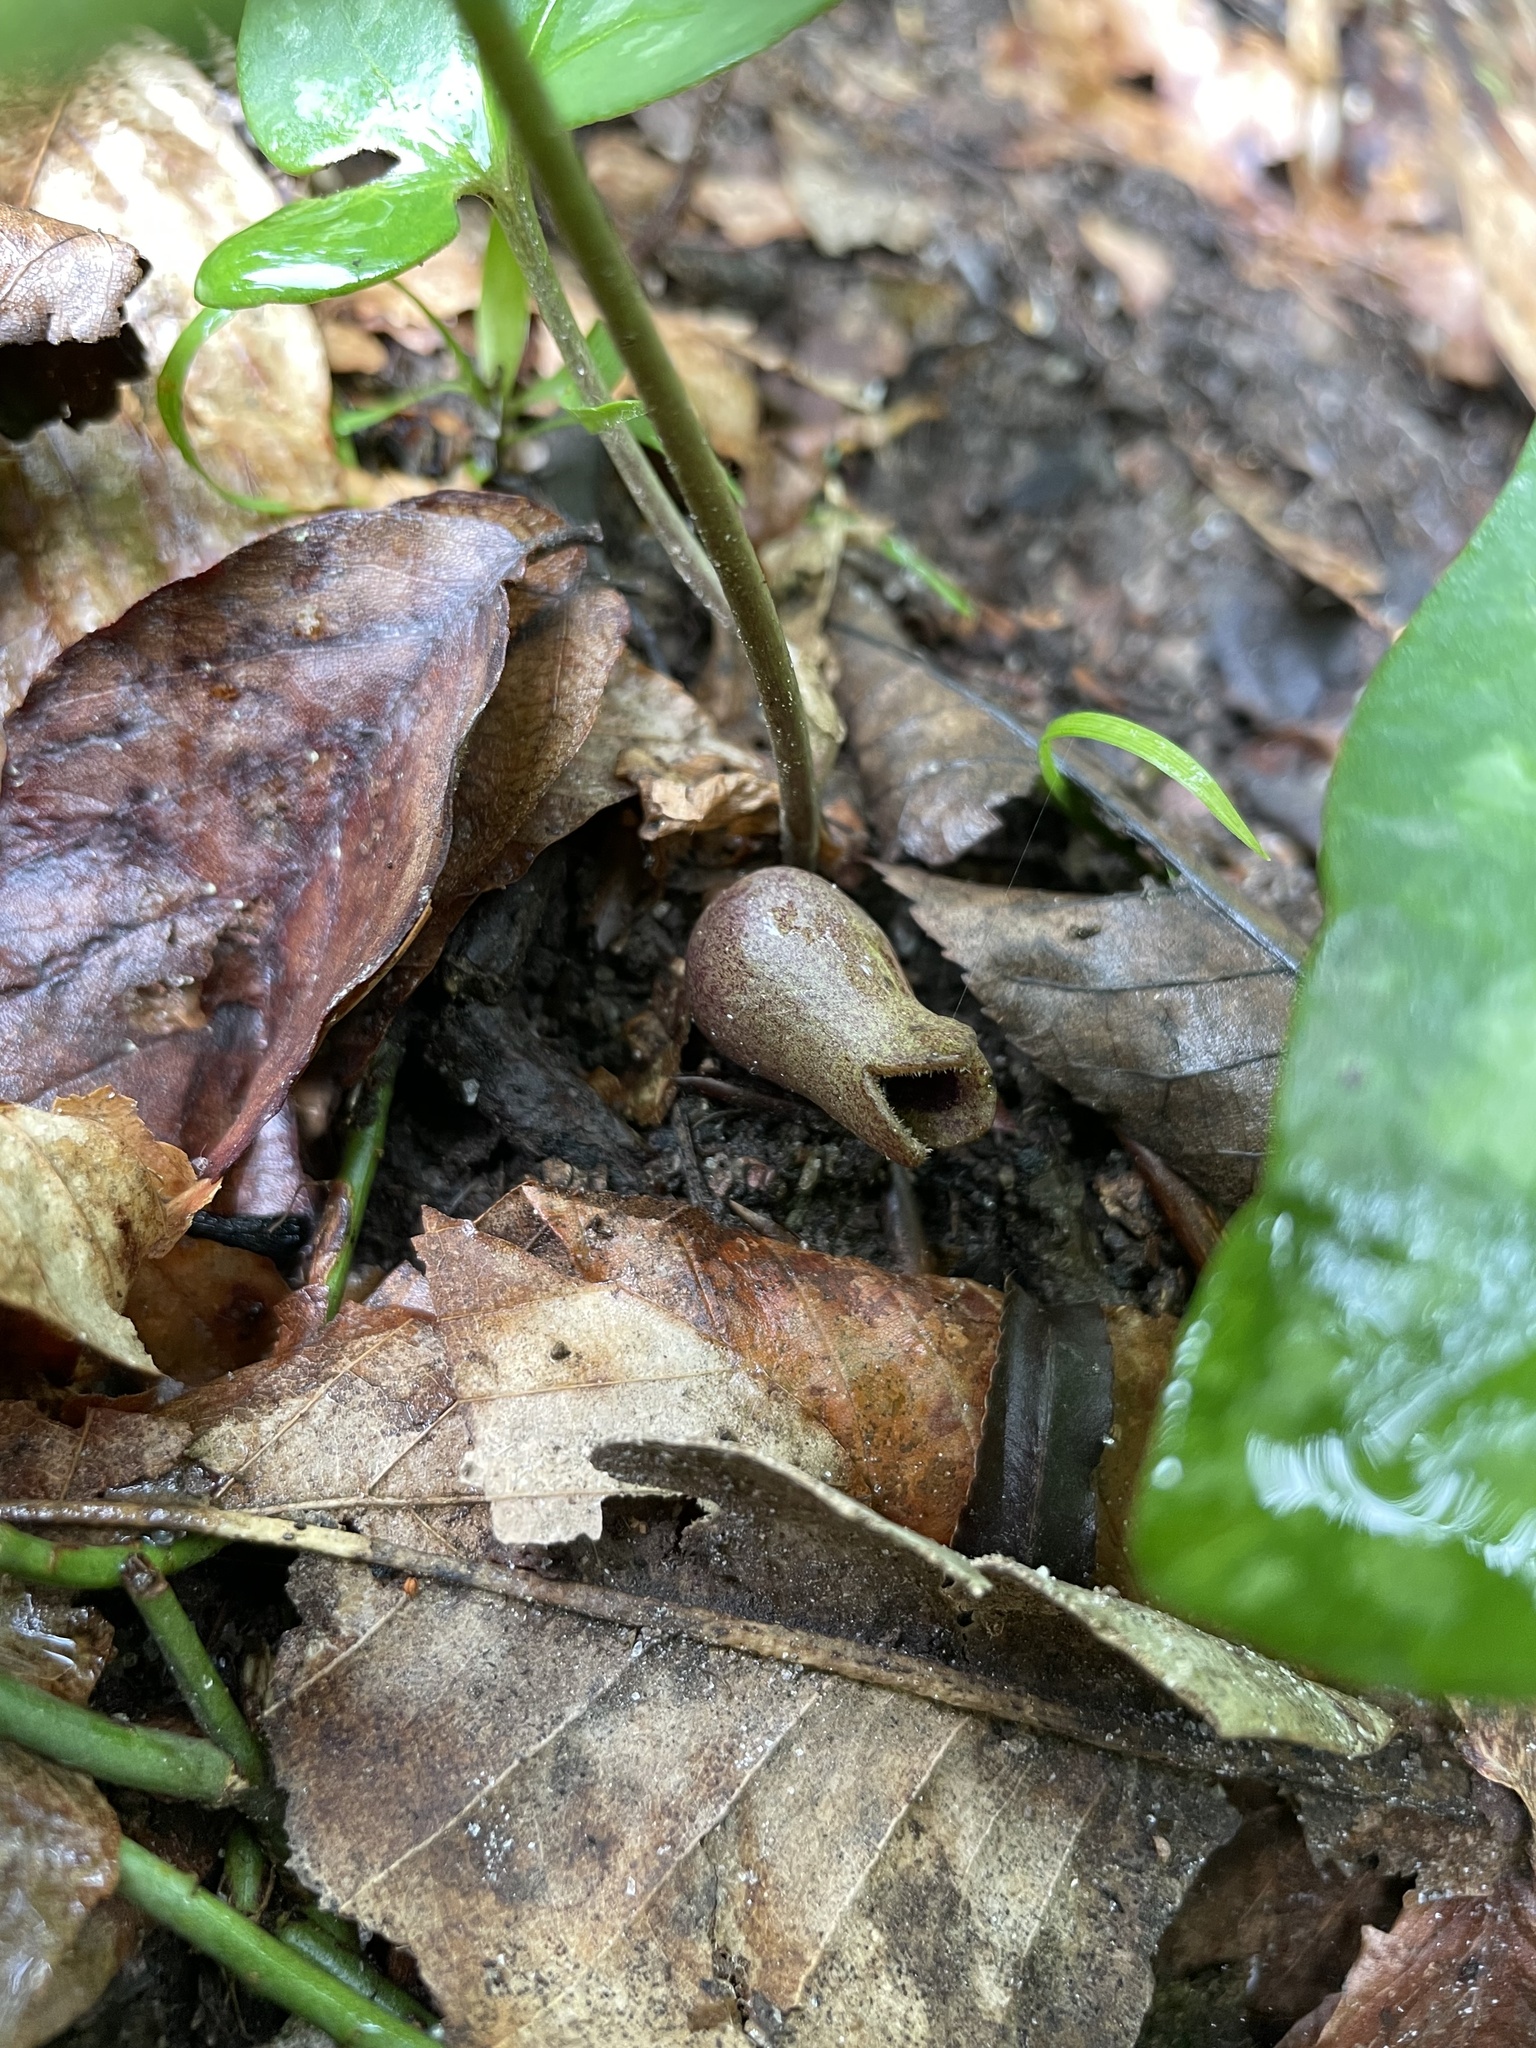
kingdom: Plantae
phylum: Tracheophyta
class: Magnoliopsida
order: Piperales
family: Aristolochiaceae
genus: Hexastylis
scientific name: Hexastylis arifolia
